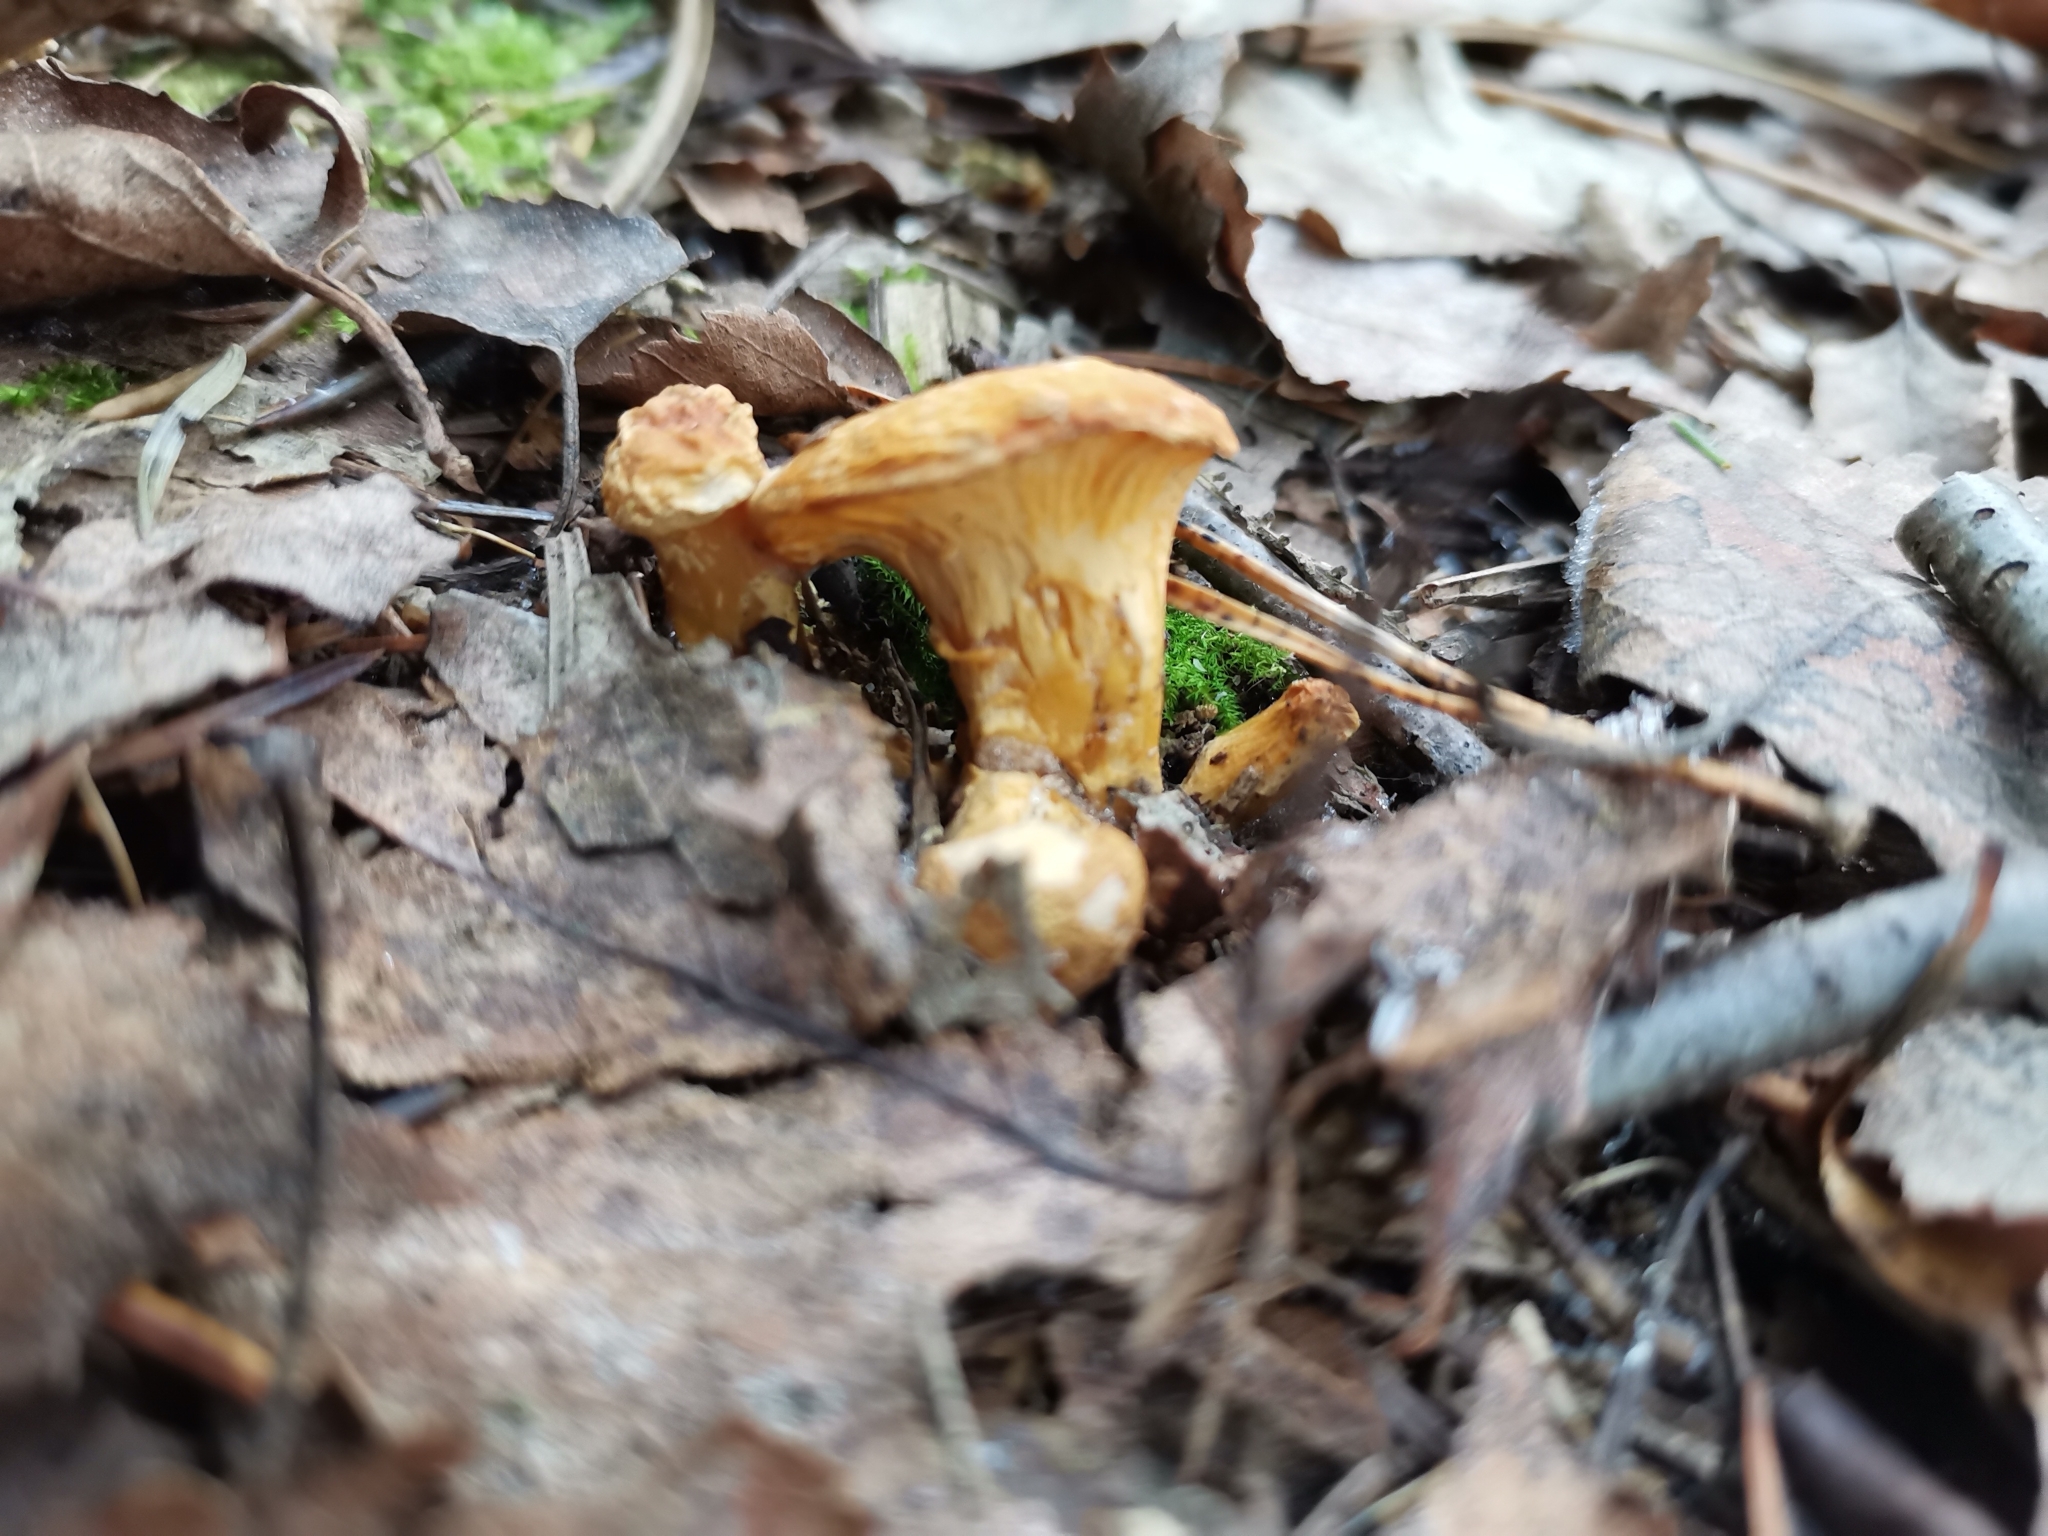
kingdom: Fungi
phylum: Basidiomycota
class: Agaricomycetes
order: Cantharellales
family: Hydnaceae
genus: Cantharellus
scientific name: Cantharellus cibarius
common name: Chanterelle
